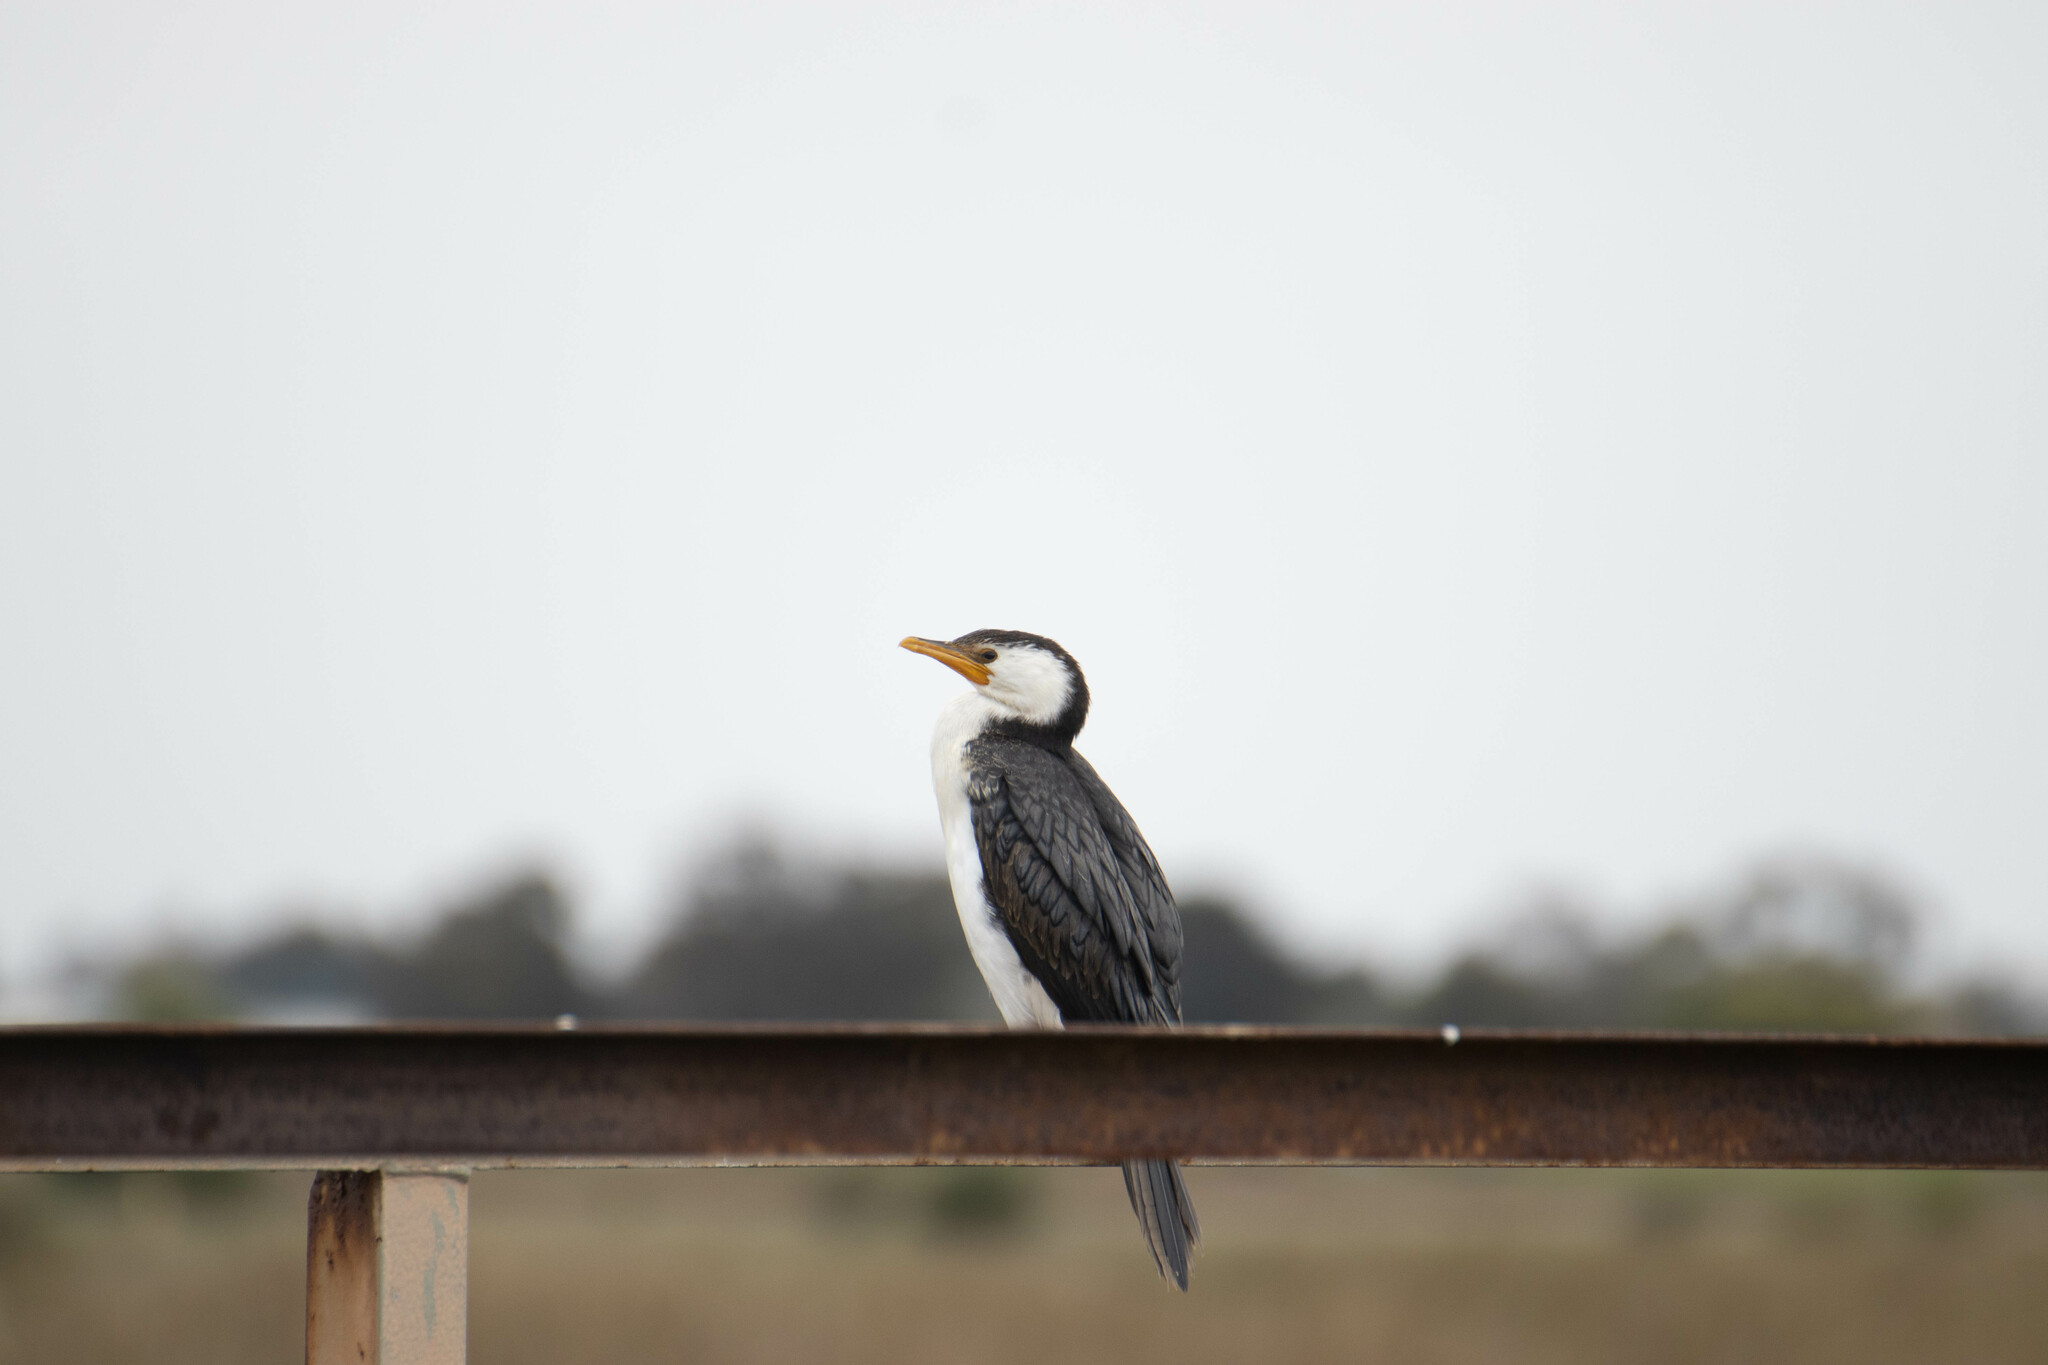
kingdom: Animalia
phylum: Chordata
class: Aves
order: Suliformes
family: Phalacrocoracidae
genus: Microcarbo
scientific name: Microcarbo melanoleucos
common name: Little pied cormorant
